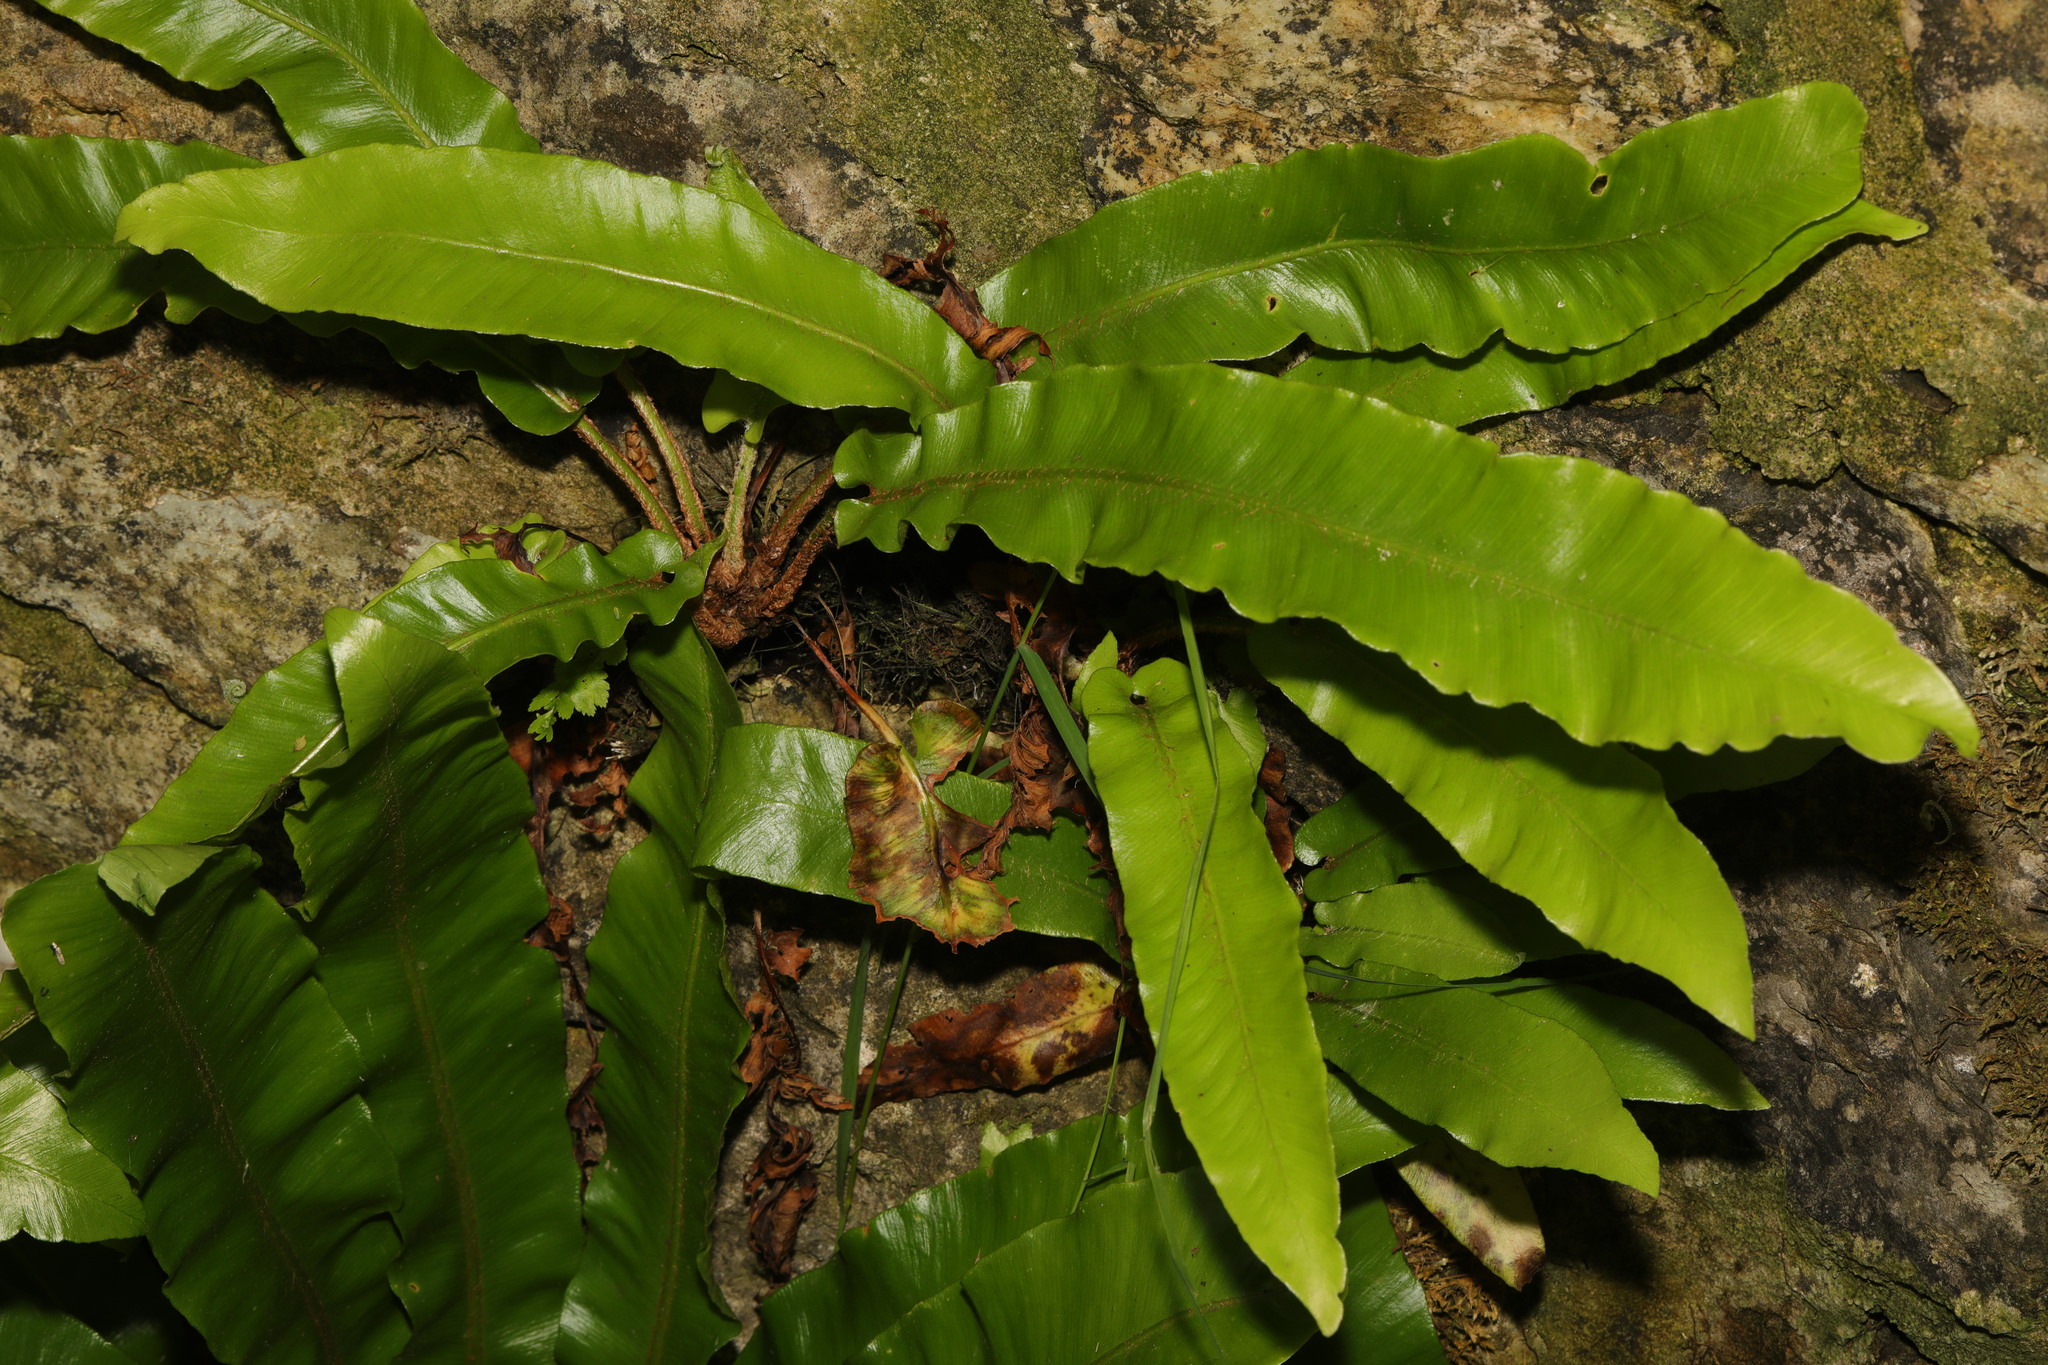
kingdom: Plantae
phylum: Tracheophyta
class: Polypodiopsida
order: Polypodiales
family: Aspleniaceae
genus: Asplenium
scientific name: Asplenium scolopendrium
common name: Hart's-tongue fern
